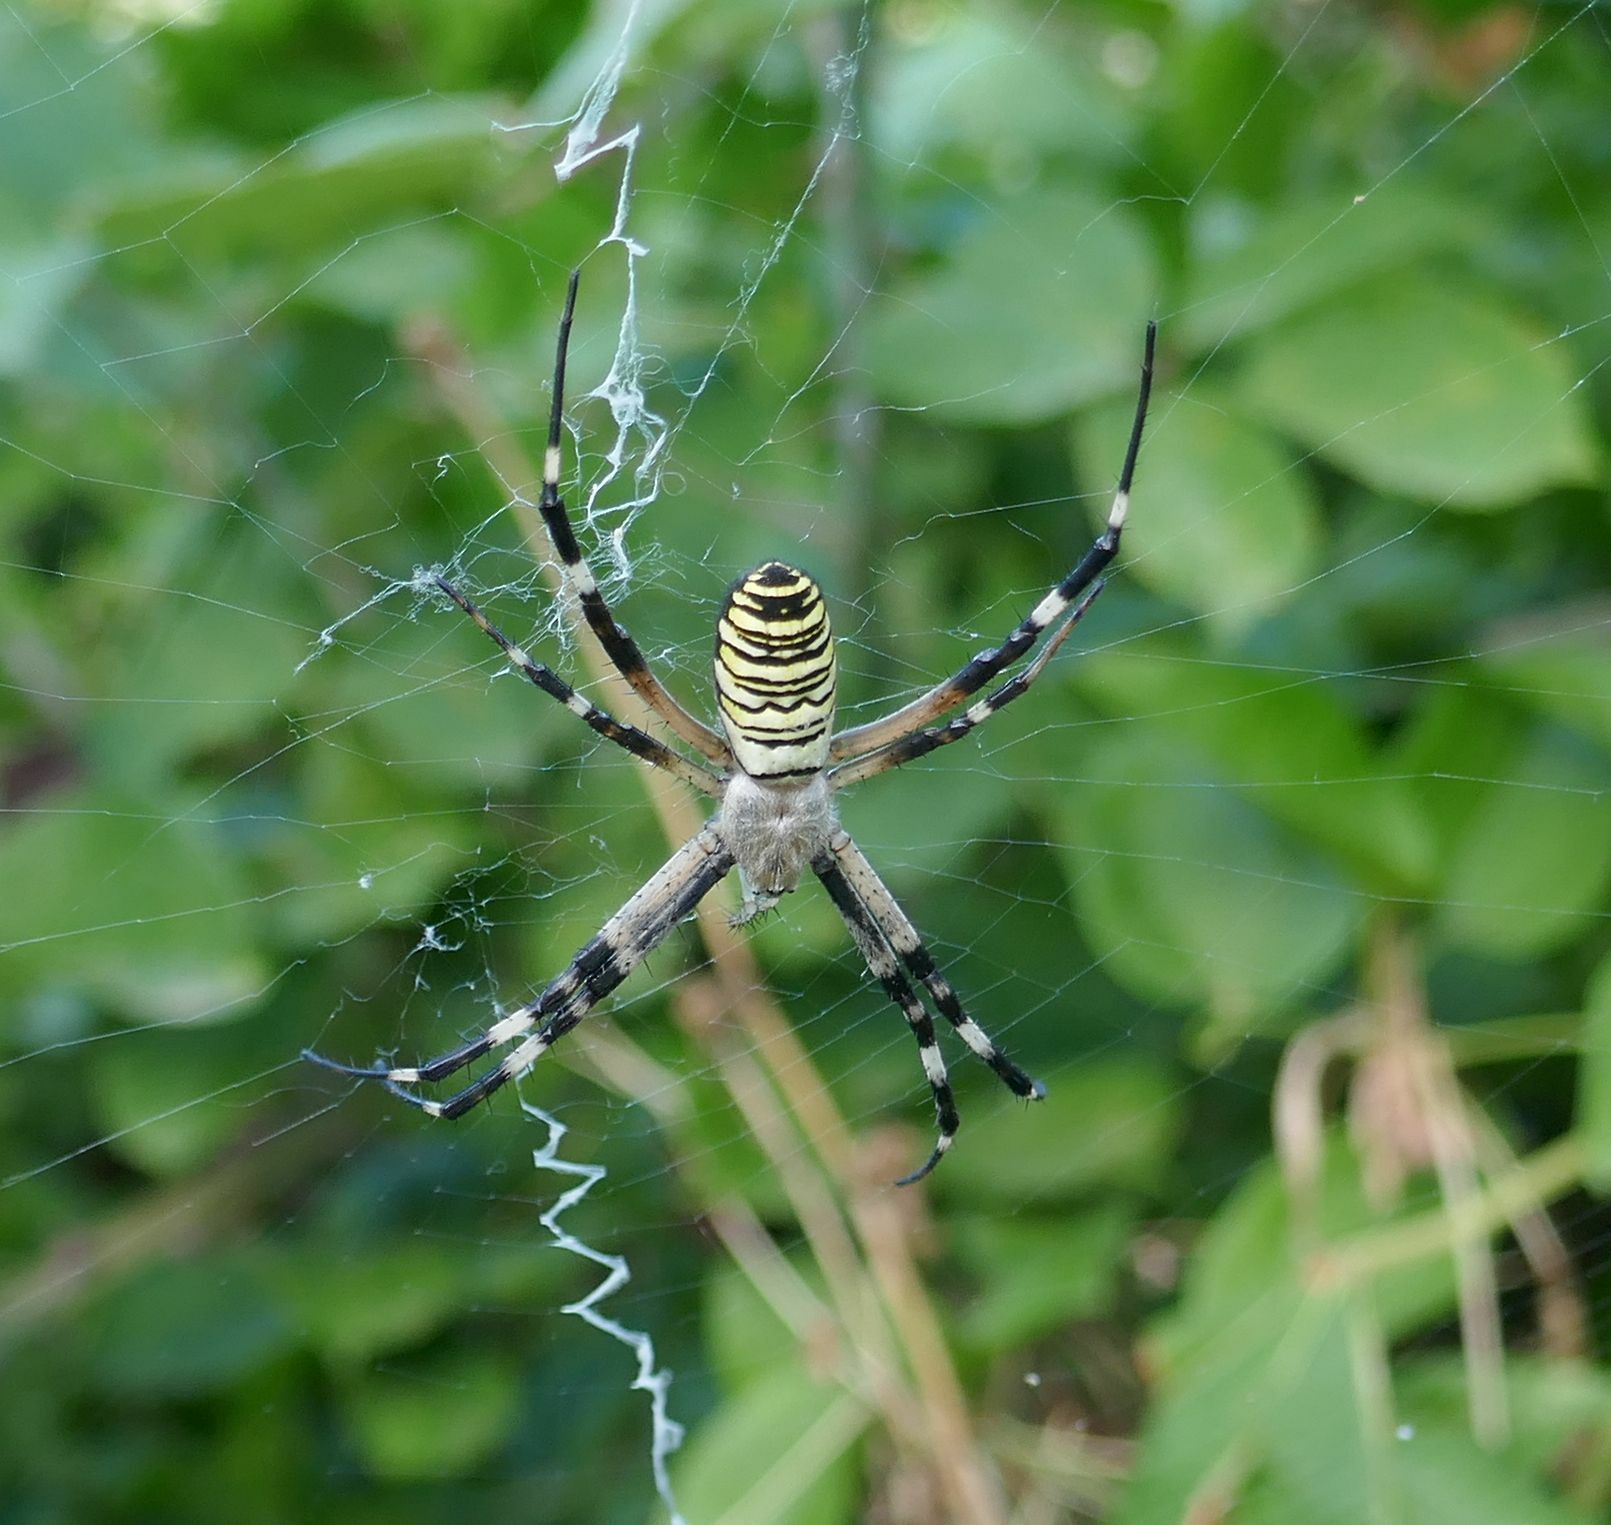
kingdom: Animalia
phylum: Arthropoda
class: Arachnida
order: Araneae
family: Araneidae
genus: Argiope
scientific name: Argiope bruennichi
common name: Wasp spider
